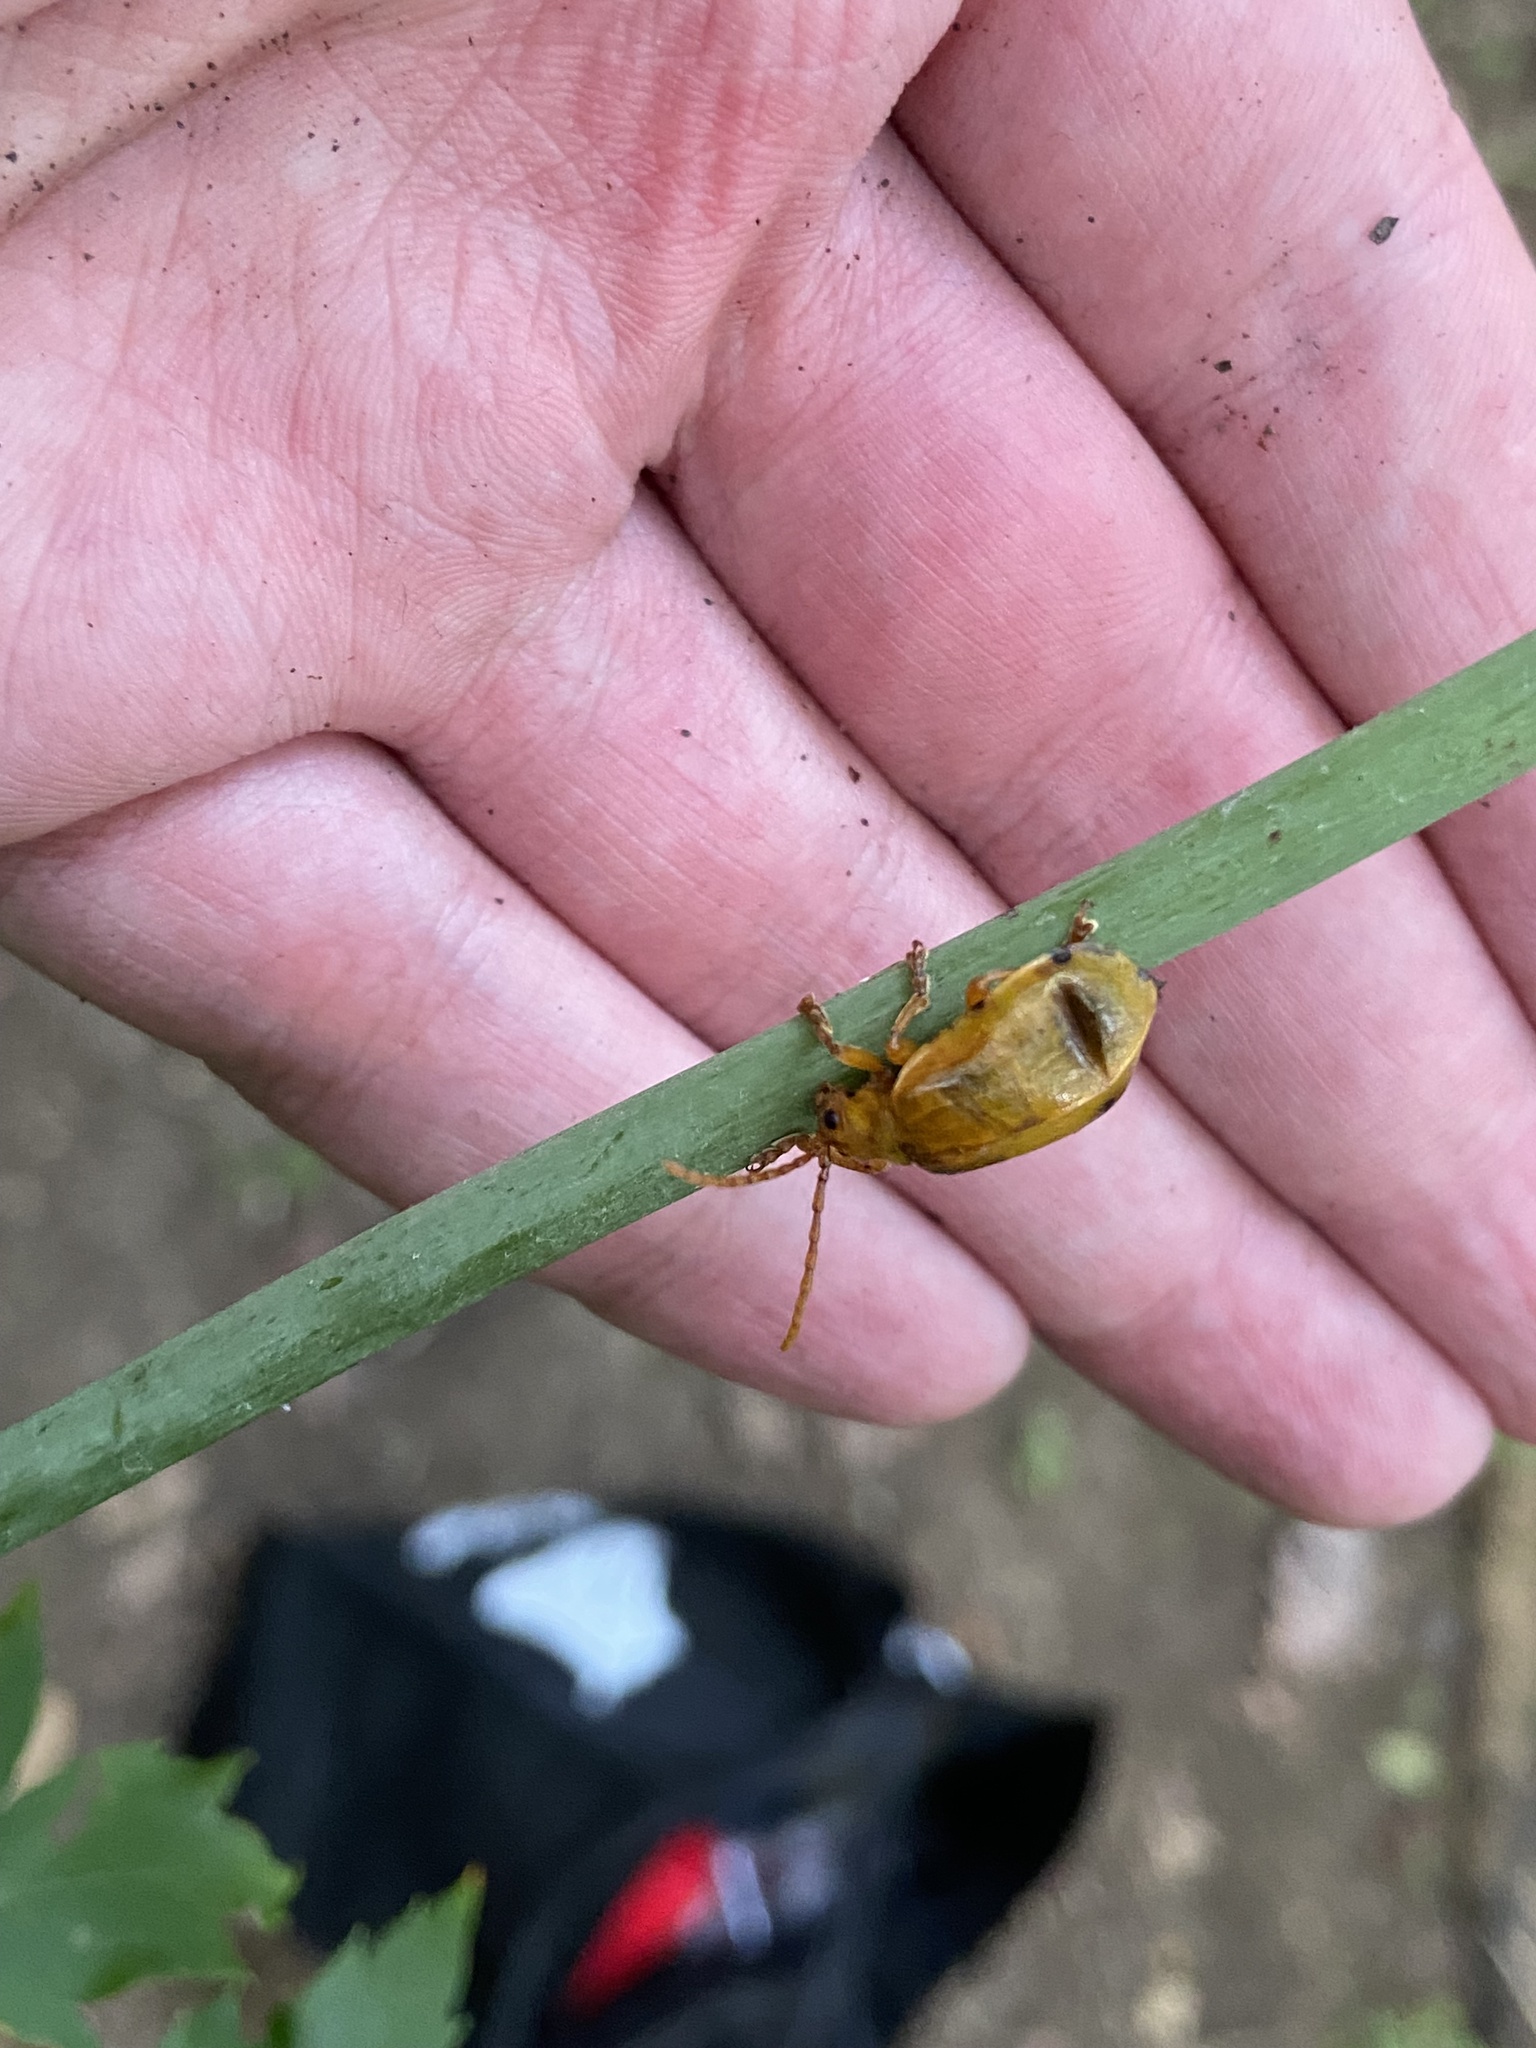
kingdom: Animalia
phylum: Arthropoda
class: Insecta
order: Coleoptera
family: Chrysomelidae
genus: Monocesta
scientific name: Monocesta coryli
